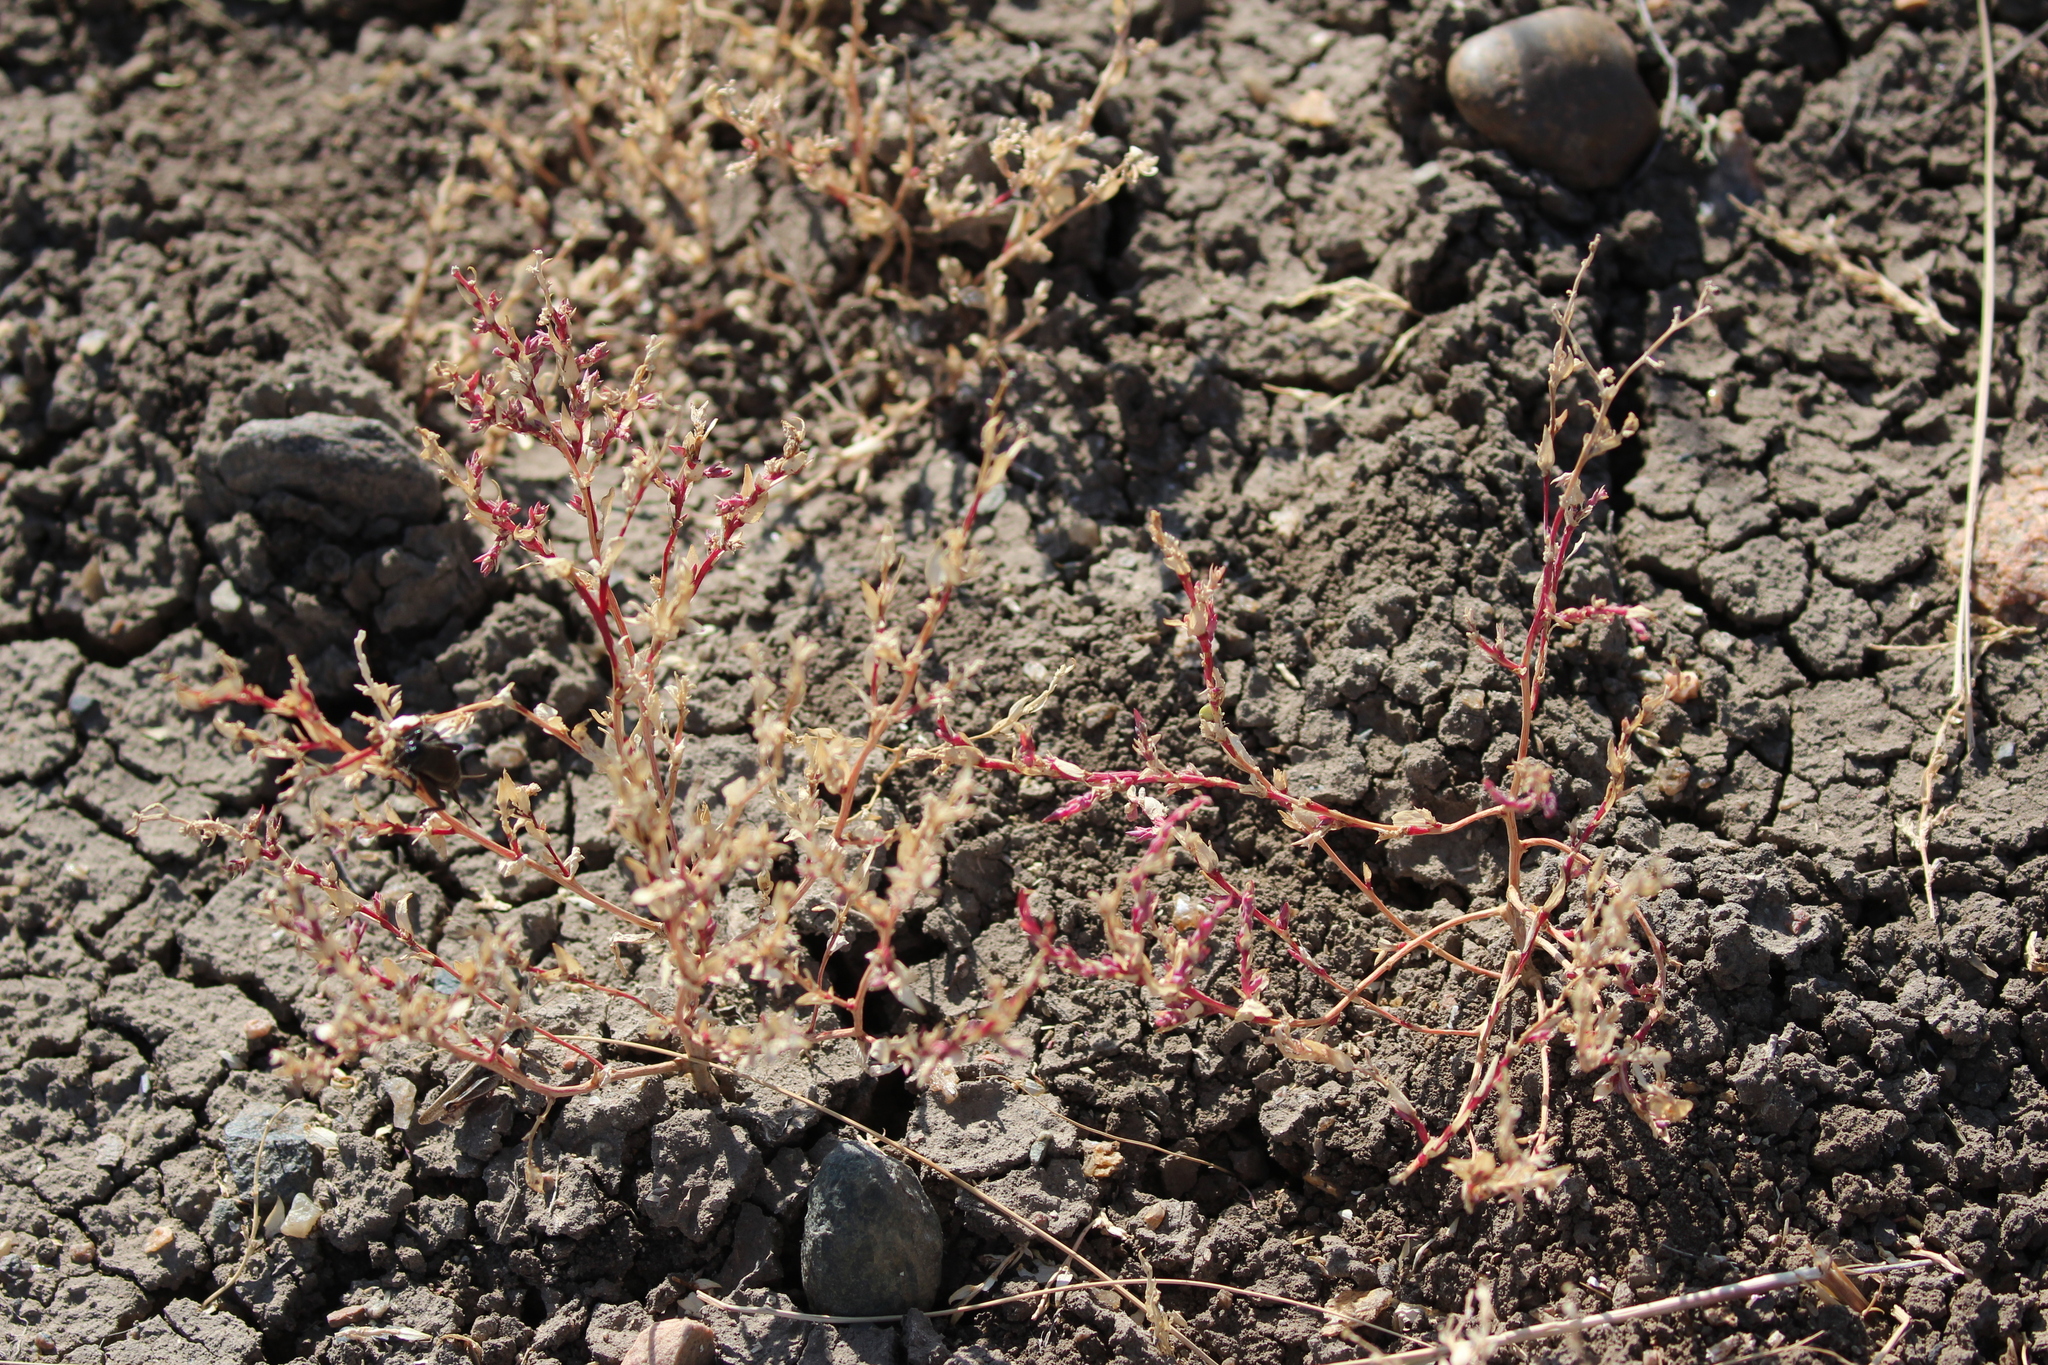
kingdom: Plantae
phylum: Tracheophyta
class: Magnoliopsida
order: Caryophyllales
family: Amaranthaceae
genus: Stutzia
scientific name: Stutzia dioica
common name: Suckley's orach
